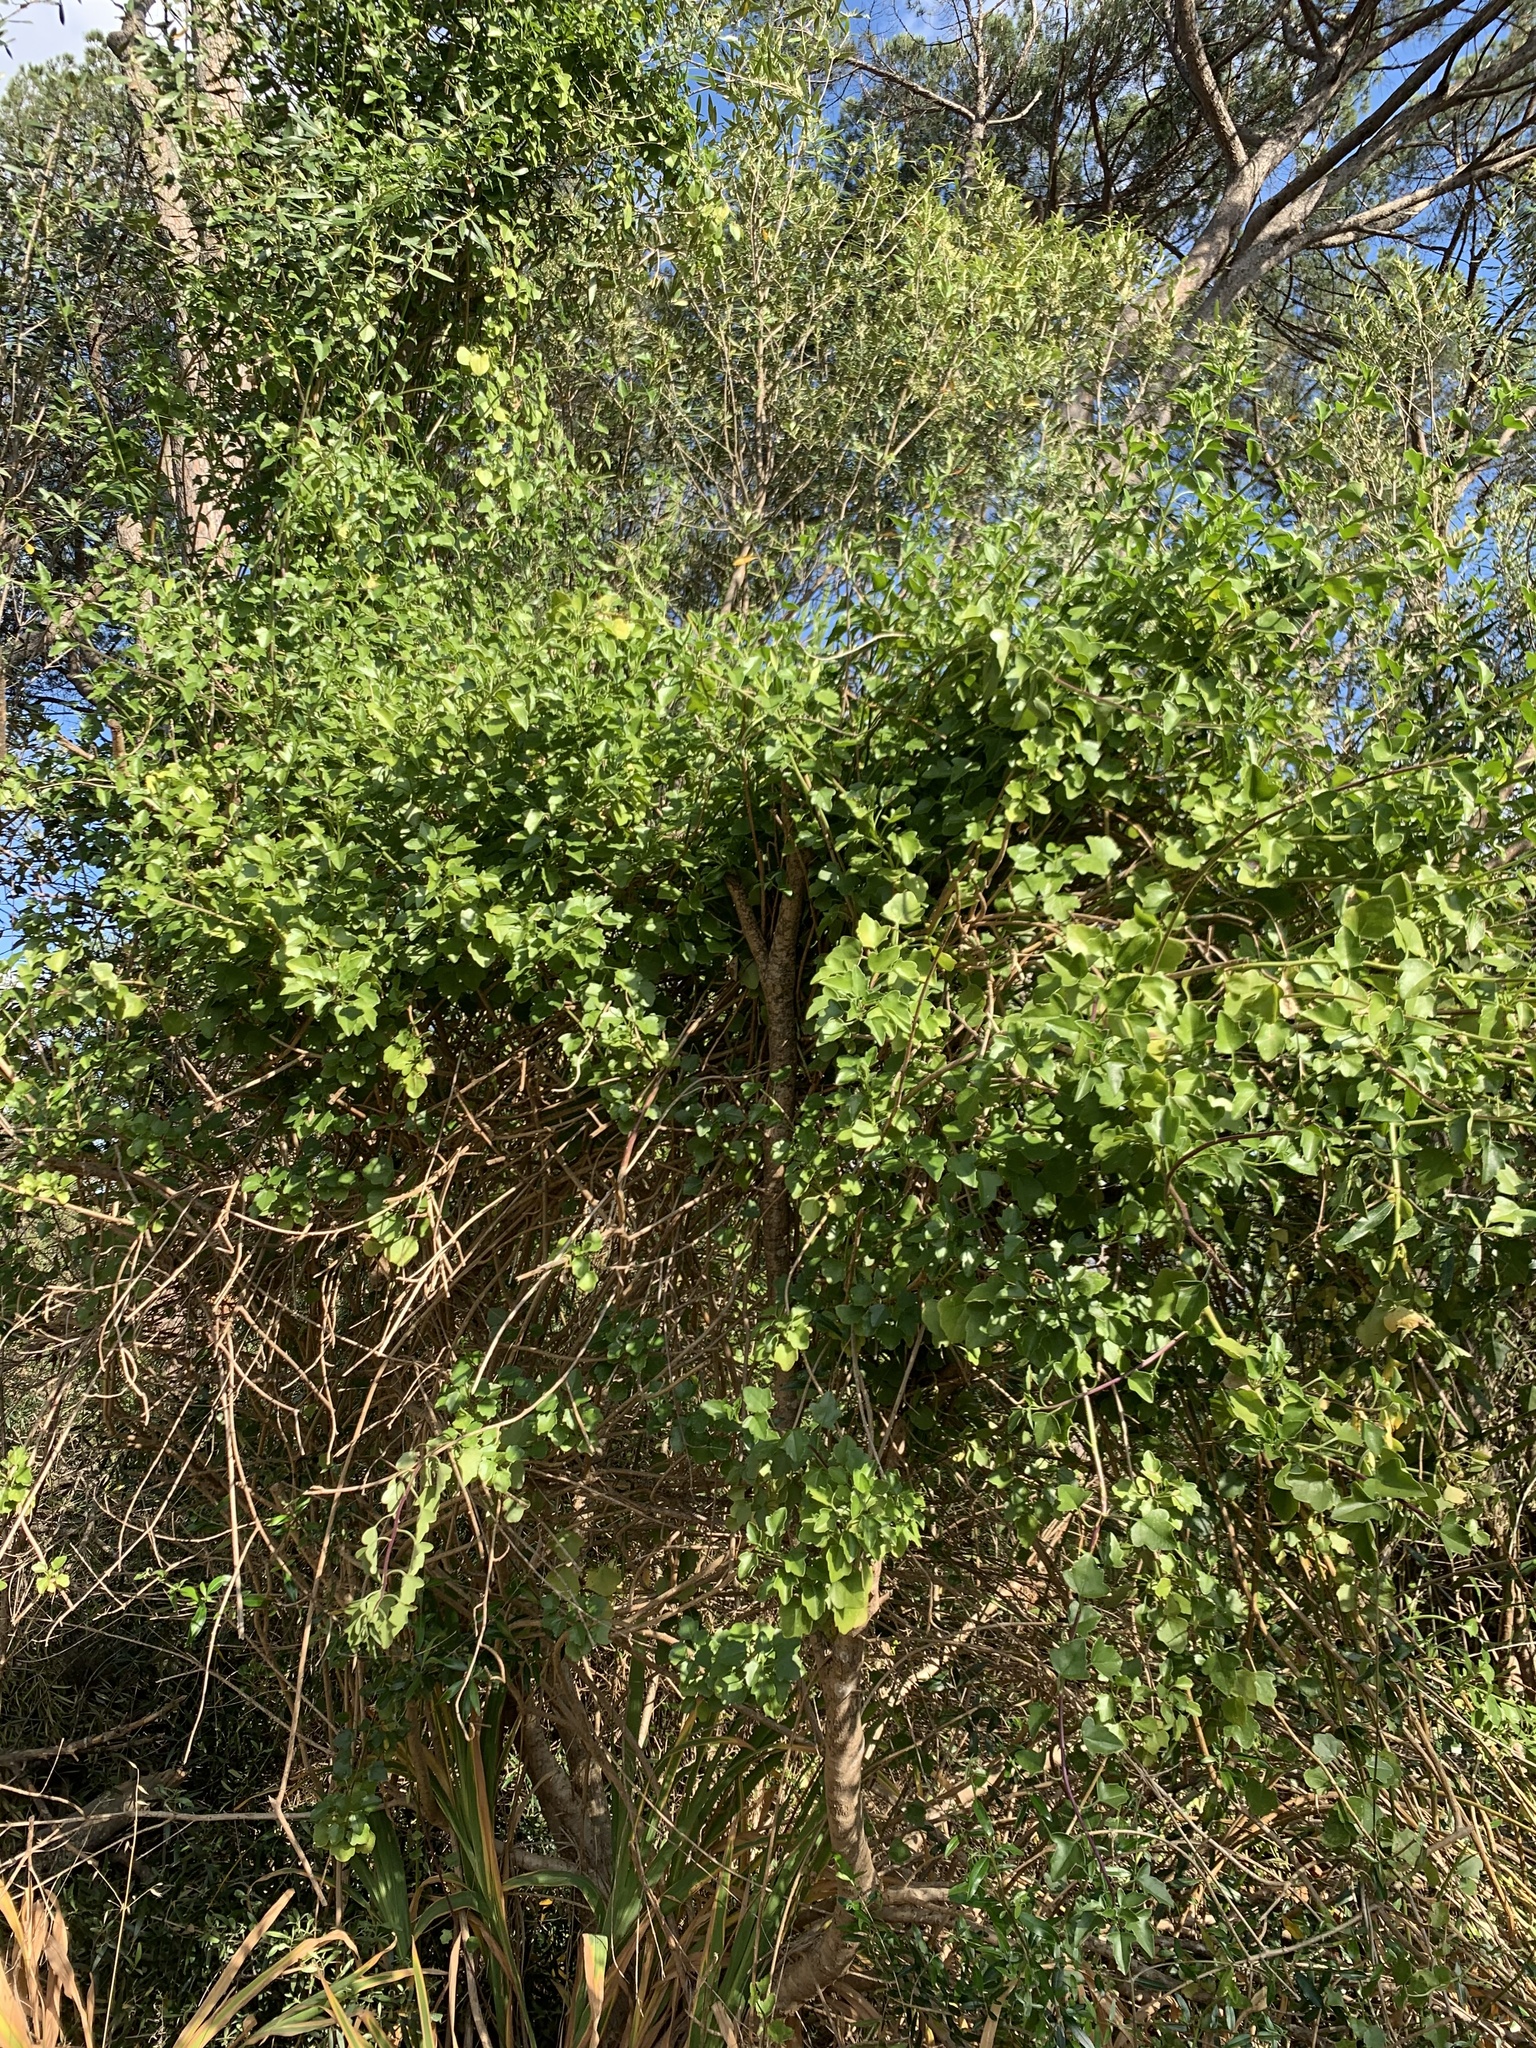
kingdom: Plantae
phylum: Tracheophyta
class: Magnoliopsida
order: Asterales
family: Asteraceae
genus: Senecio
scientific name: Senecio angulatus
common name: Climbing groundsel
